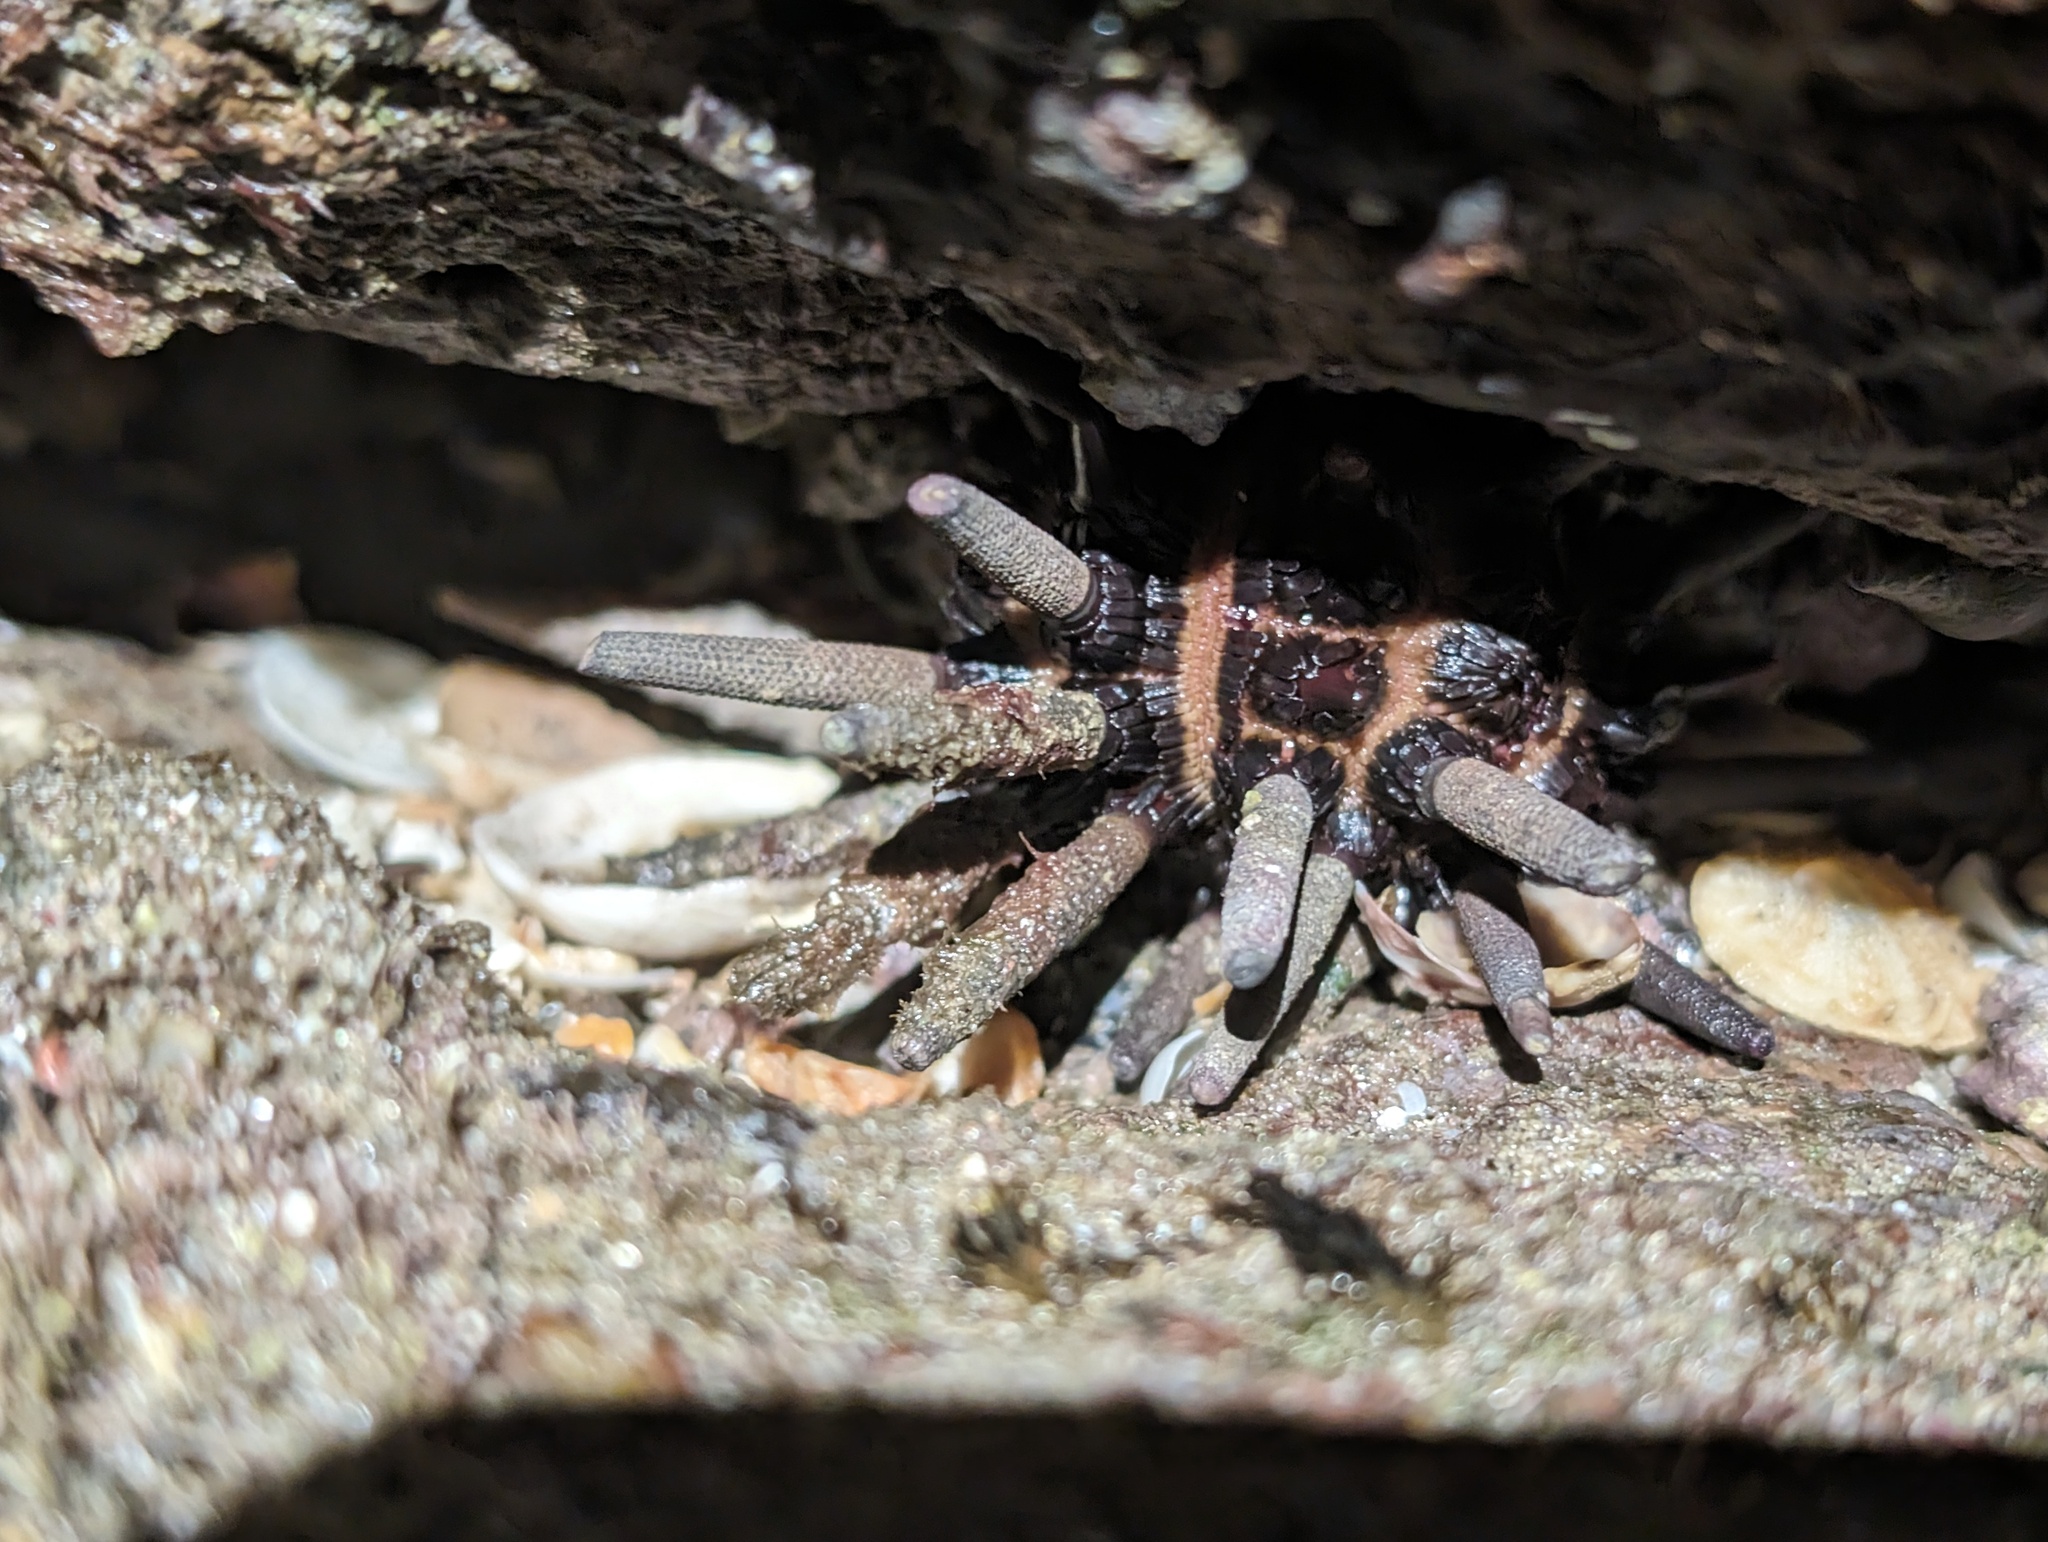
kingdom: Animalia
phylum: Echinodermata
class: Echinoidea
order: Cidaroida
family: Cidaridae
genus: Eucidaris
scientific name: Eucidaris thouarsii
